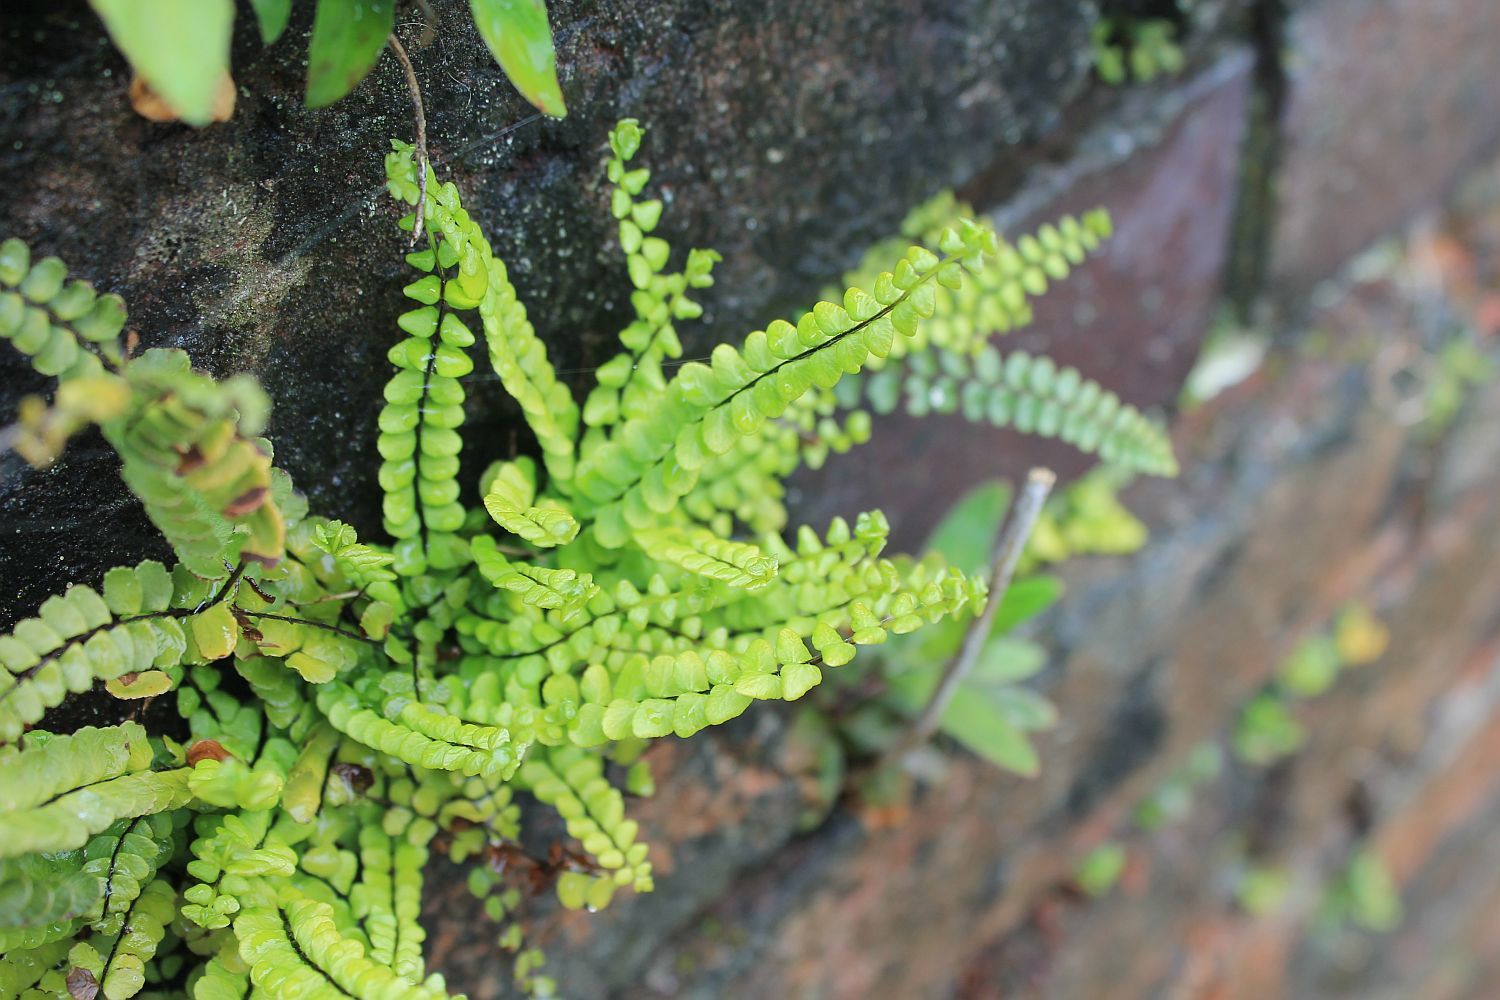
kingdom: Plantae
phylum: Tracheophyta
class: Polypodiopsida
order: Polypodiales
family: Aspleniaceae
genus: Asplenium
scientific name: Asplenium trichomanes
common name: Maidenhair spleenwort
